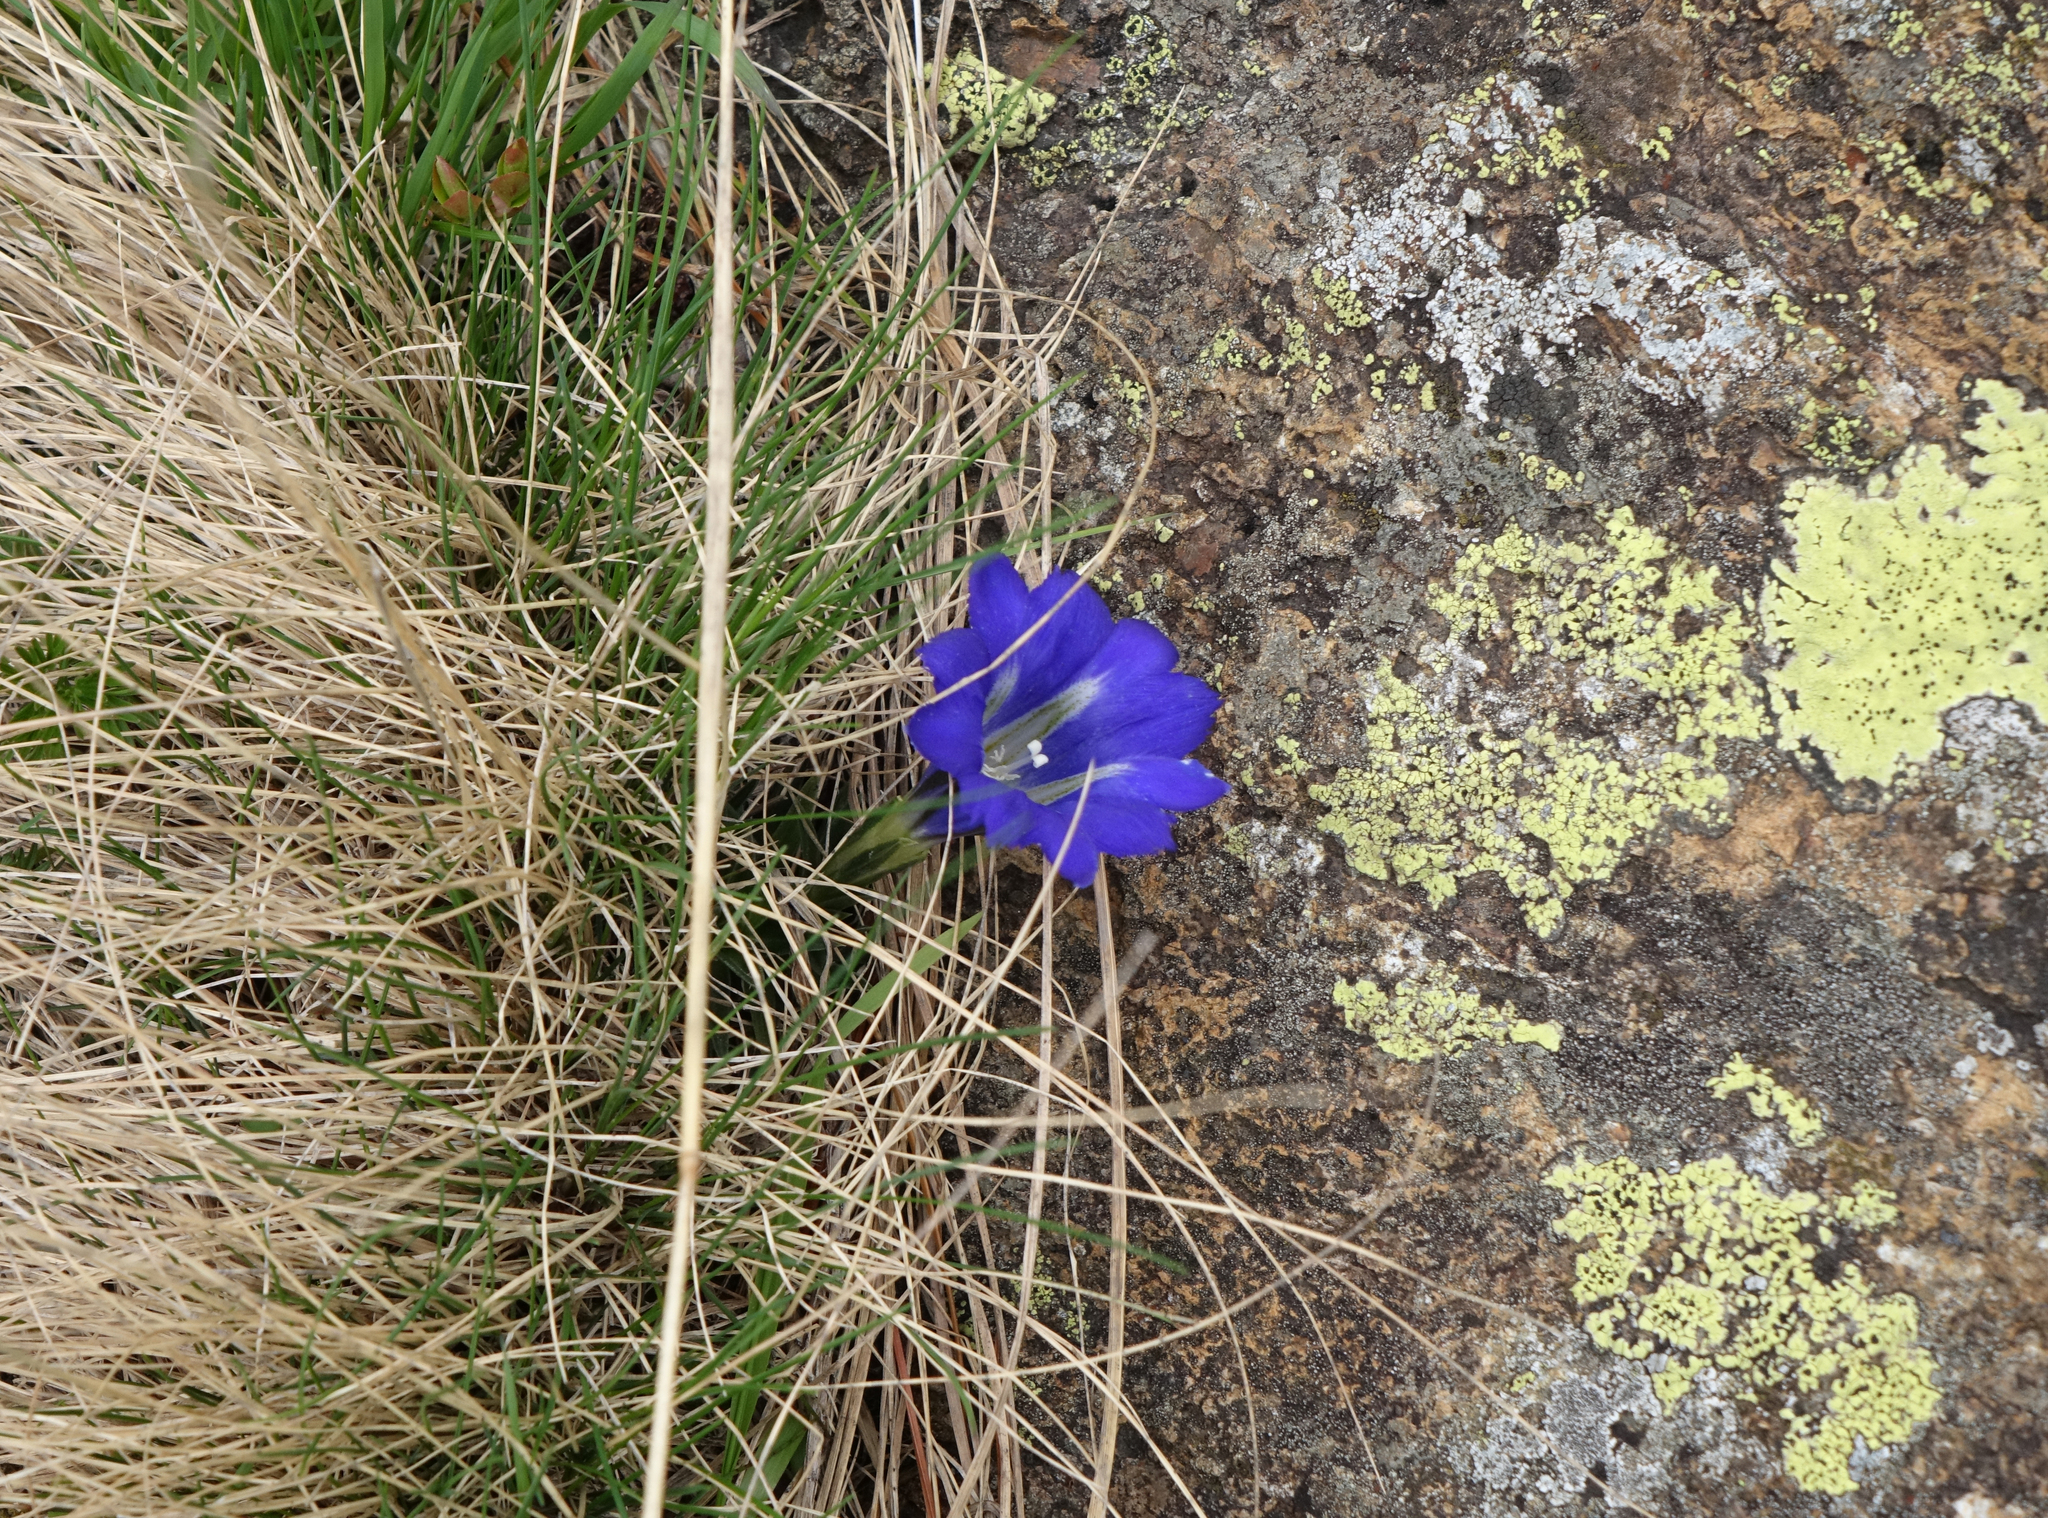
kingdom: Plantae
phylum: Tracheophyta
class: Magnoliopsida
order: Gentianales
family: Gentianaceae
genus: Gentiana
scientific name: Gentiana grandiflora
